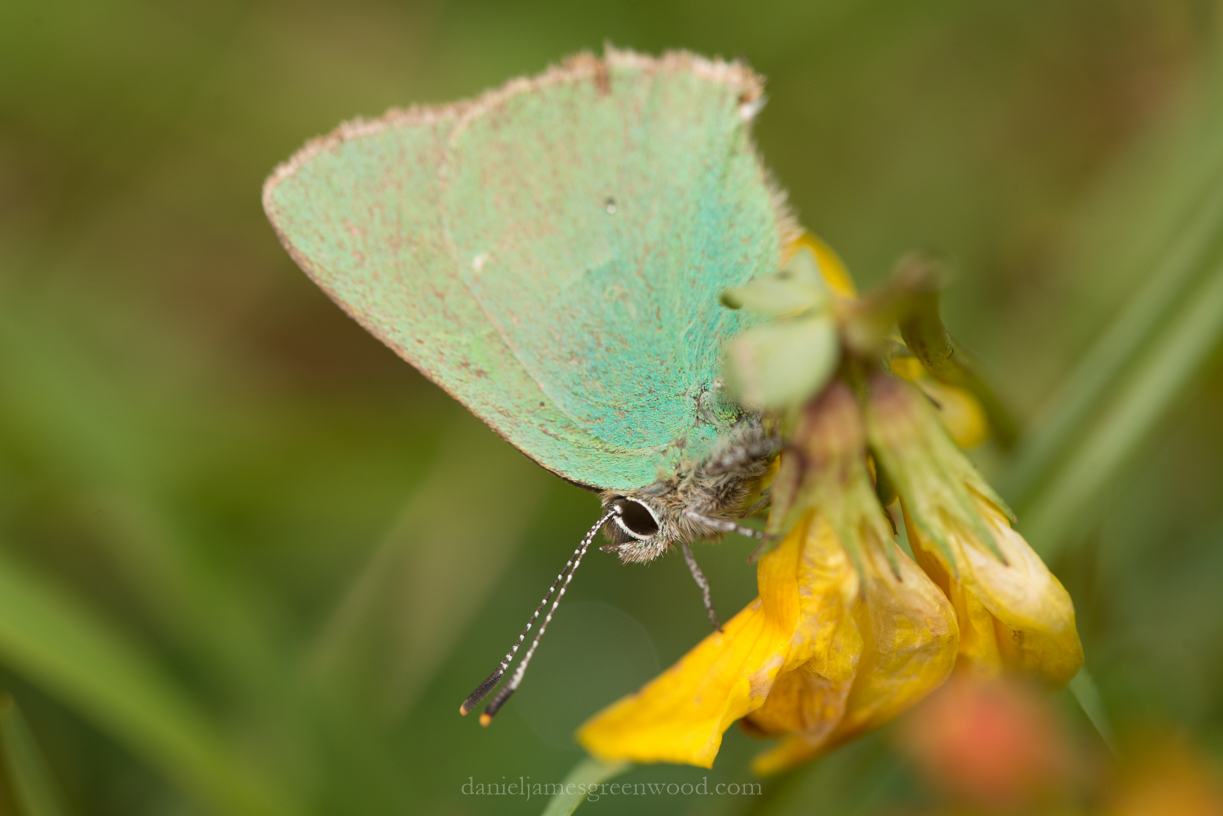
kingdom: Animalia
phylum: Arthropoda
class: Insecta
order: Lepidoptera
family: Lycaenidae
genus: Callophrys
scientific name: Callophrys rubi
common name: Green hairstreak
